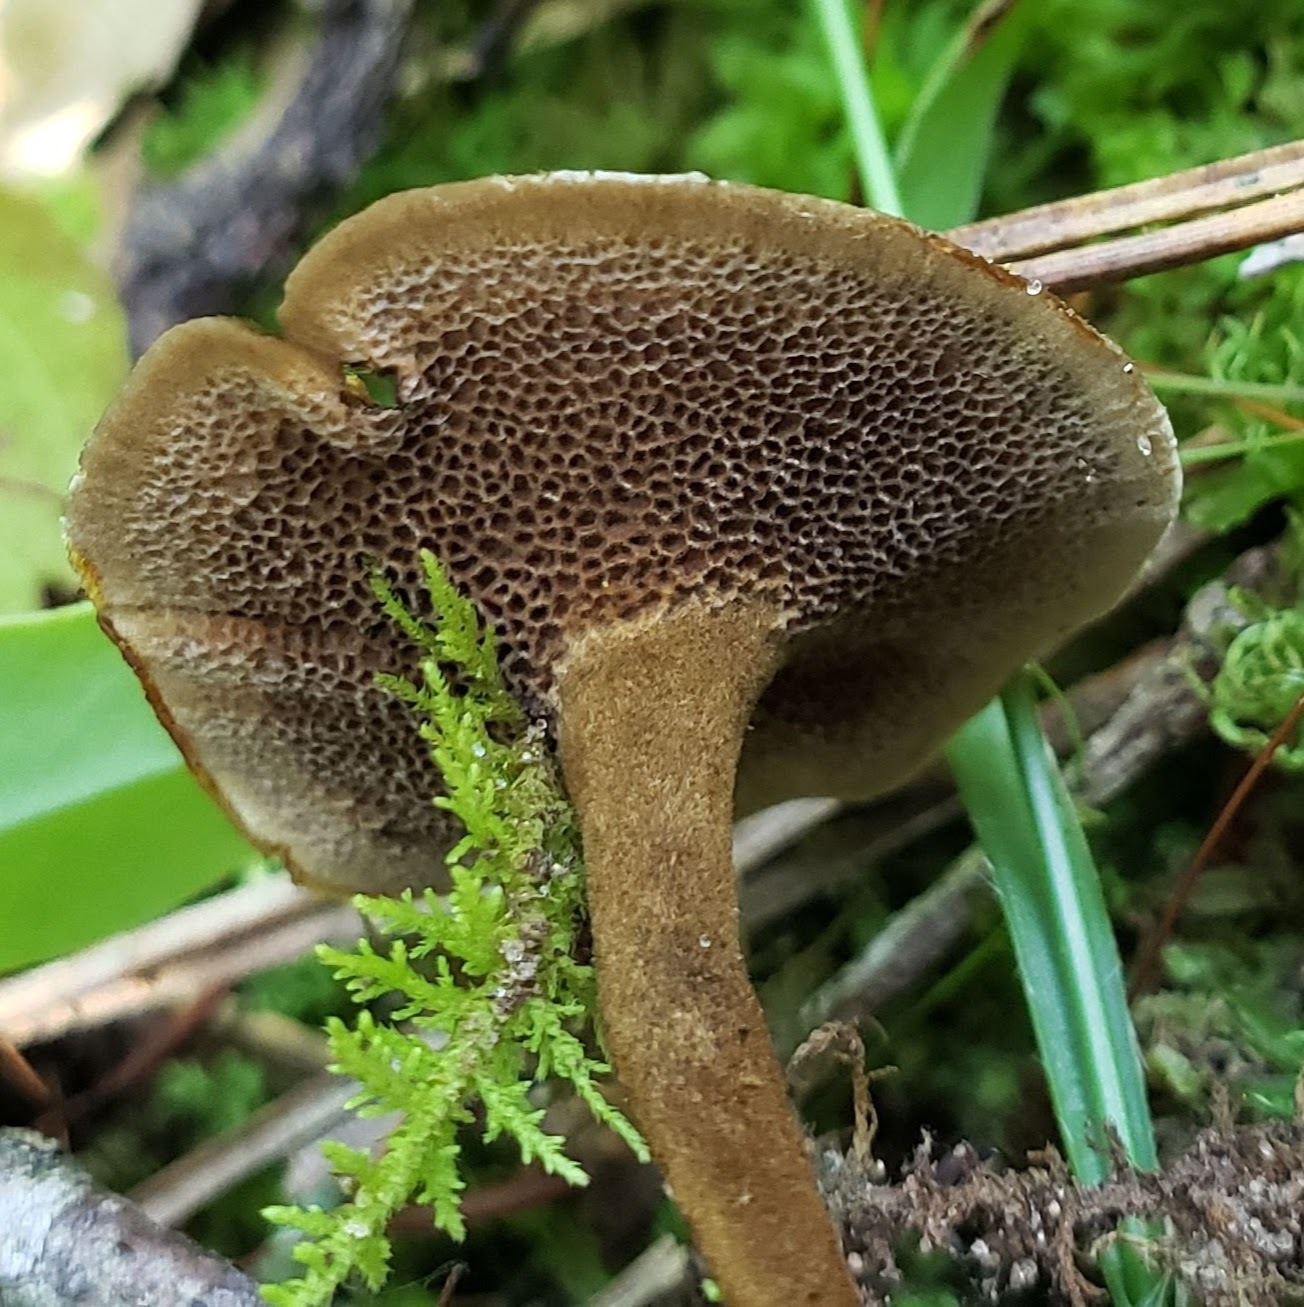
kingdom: Fungi
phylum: Basidiomycota
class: Agaricomycetes
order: Hymenochaetales
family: Hymenochaetaceae
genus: Coltricia
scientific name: Coltricia cinnamomea
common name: Shiny cinnamon polypore
